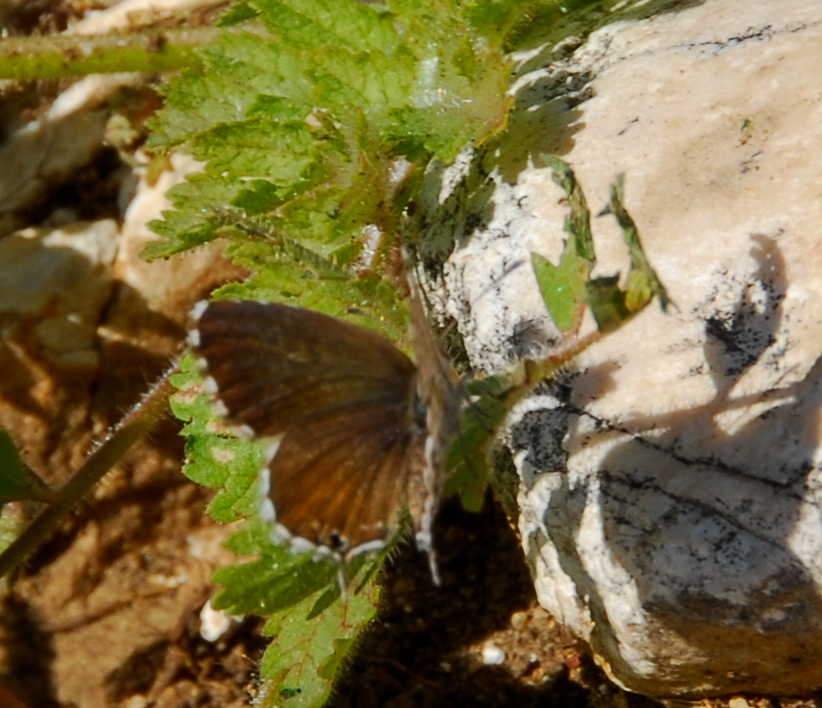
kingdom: Animalia
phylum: Arthropoda
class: Insecta
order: Lepidoptera
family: Lycaenidae
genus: Cacyreus
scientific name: Cacyreus marshalli
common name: Geranium bronze
